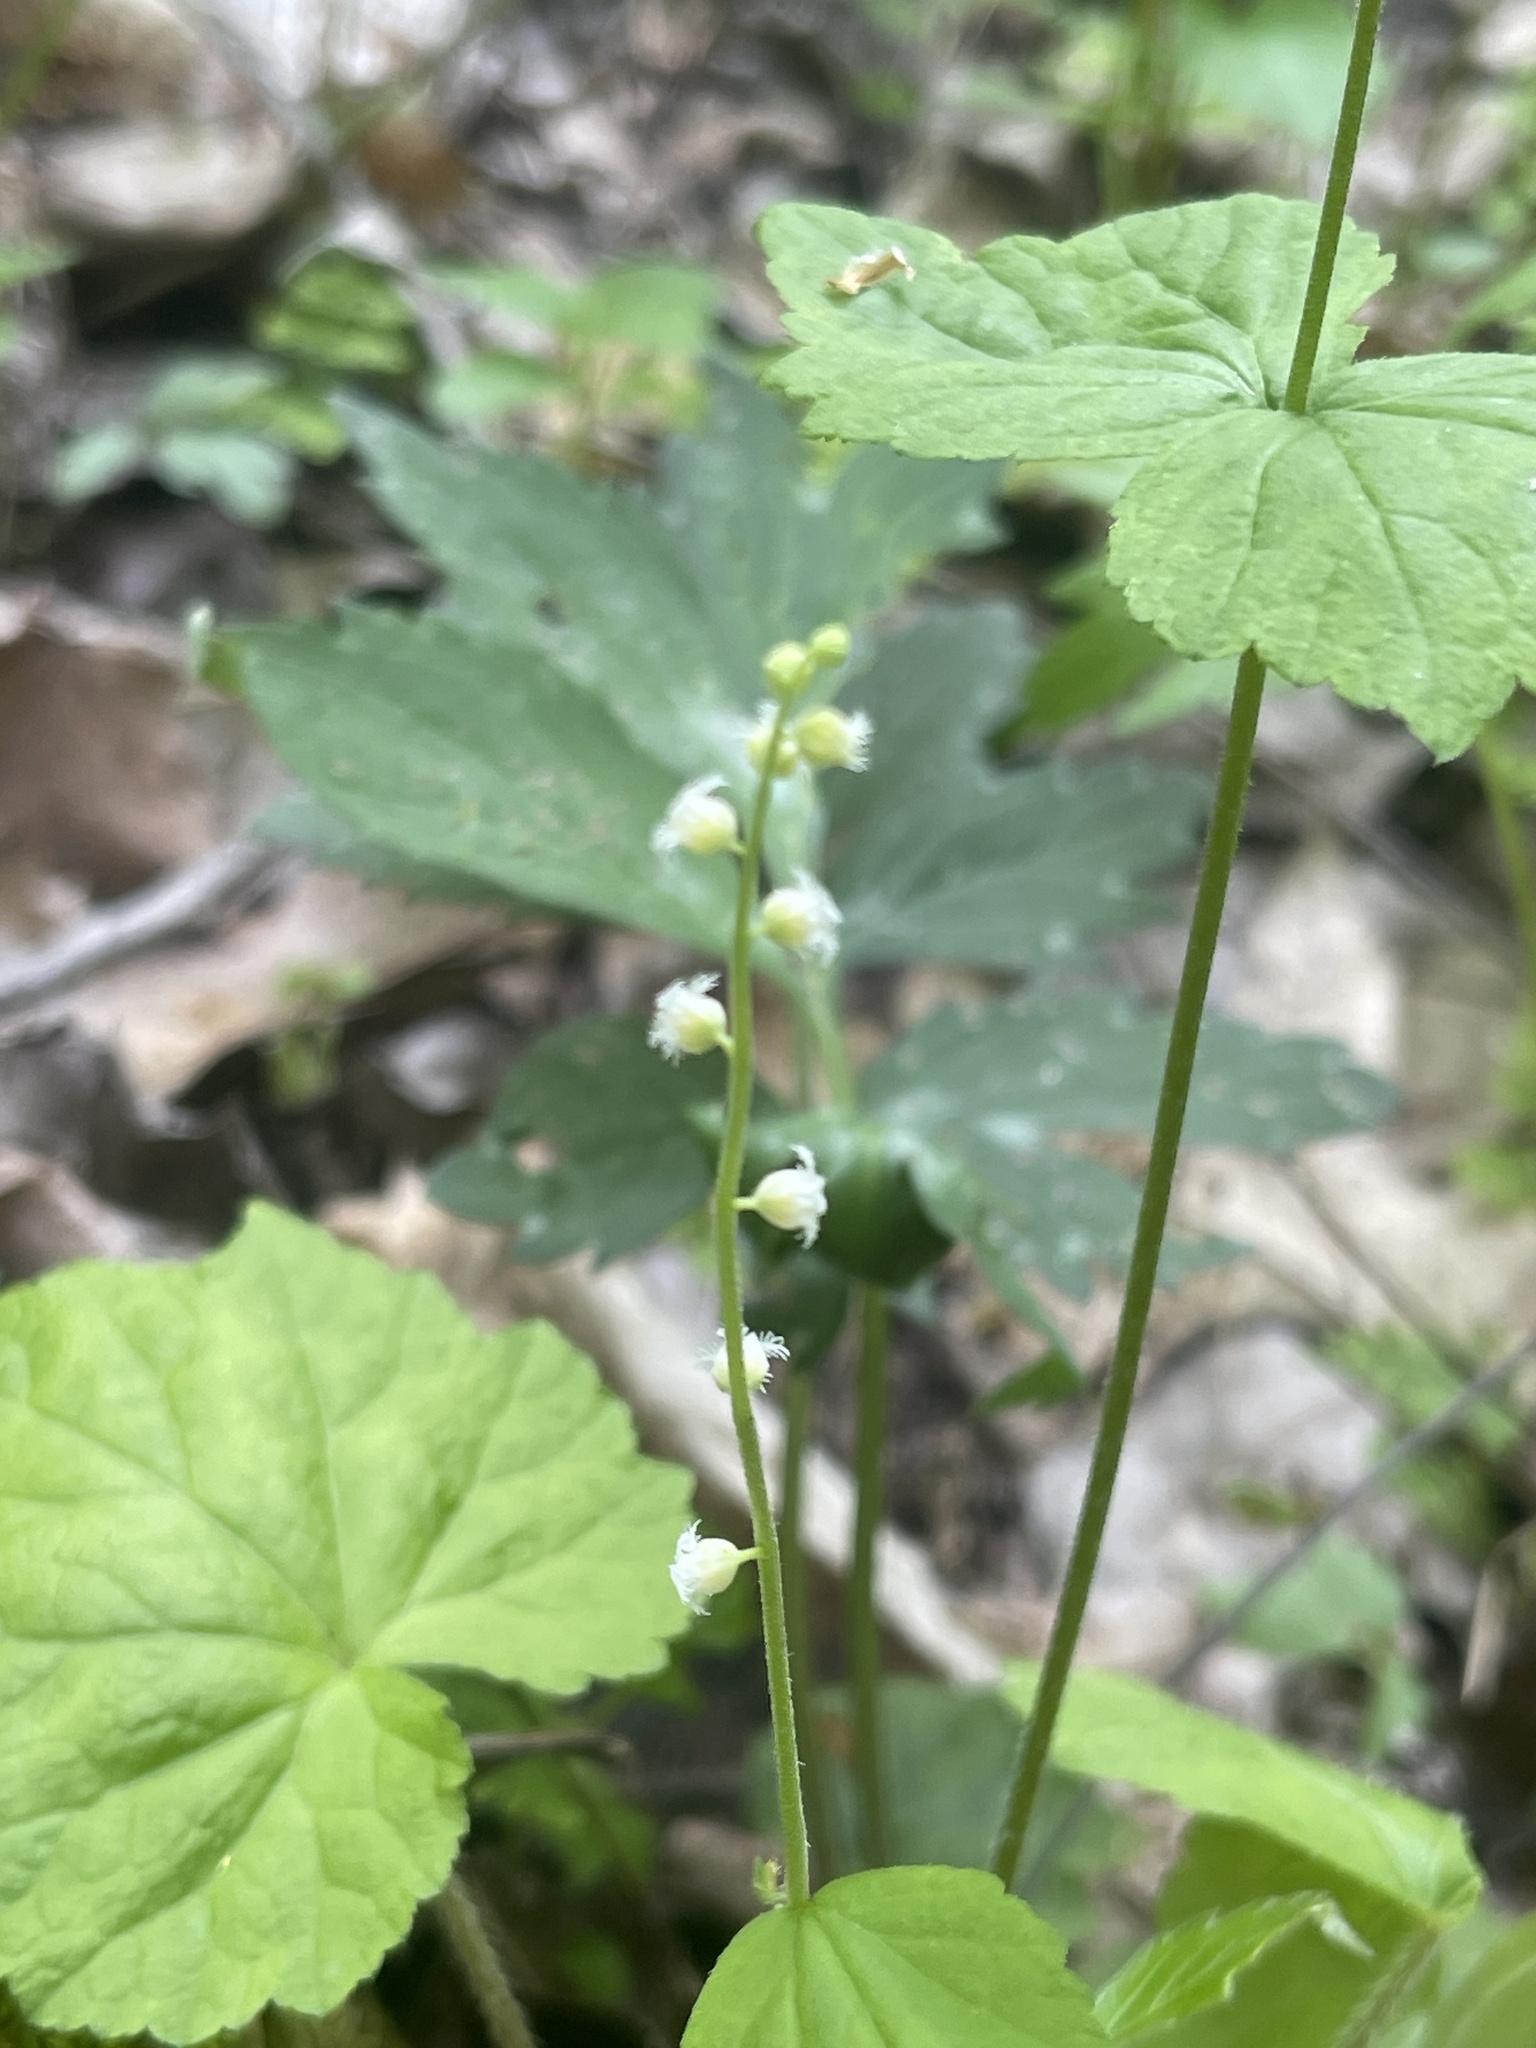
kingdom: Plantae
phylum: Tracheophyta
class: Magnoliopsida
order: Saxifragales
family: Saxifragaceae
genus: Mitella
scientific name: Mitella diphylla
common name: Coolwort
